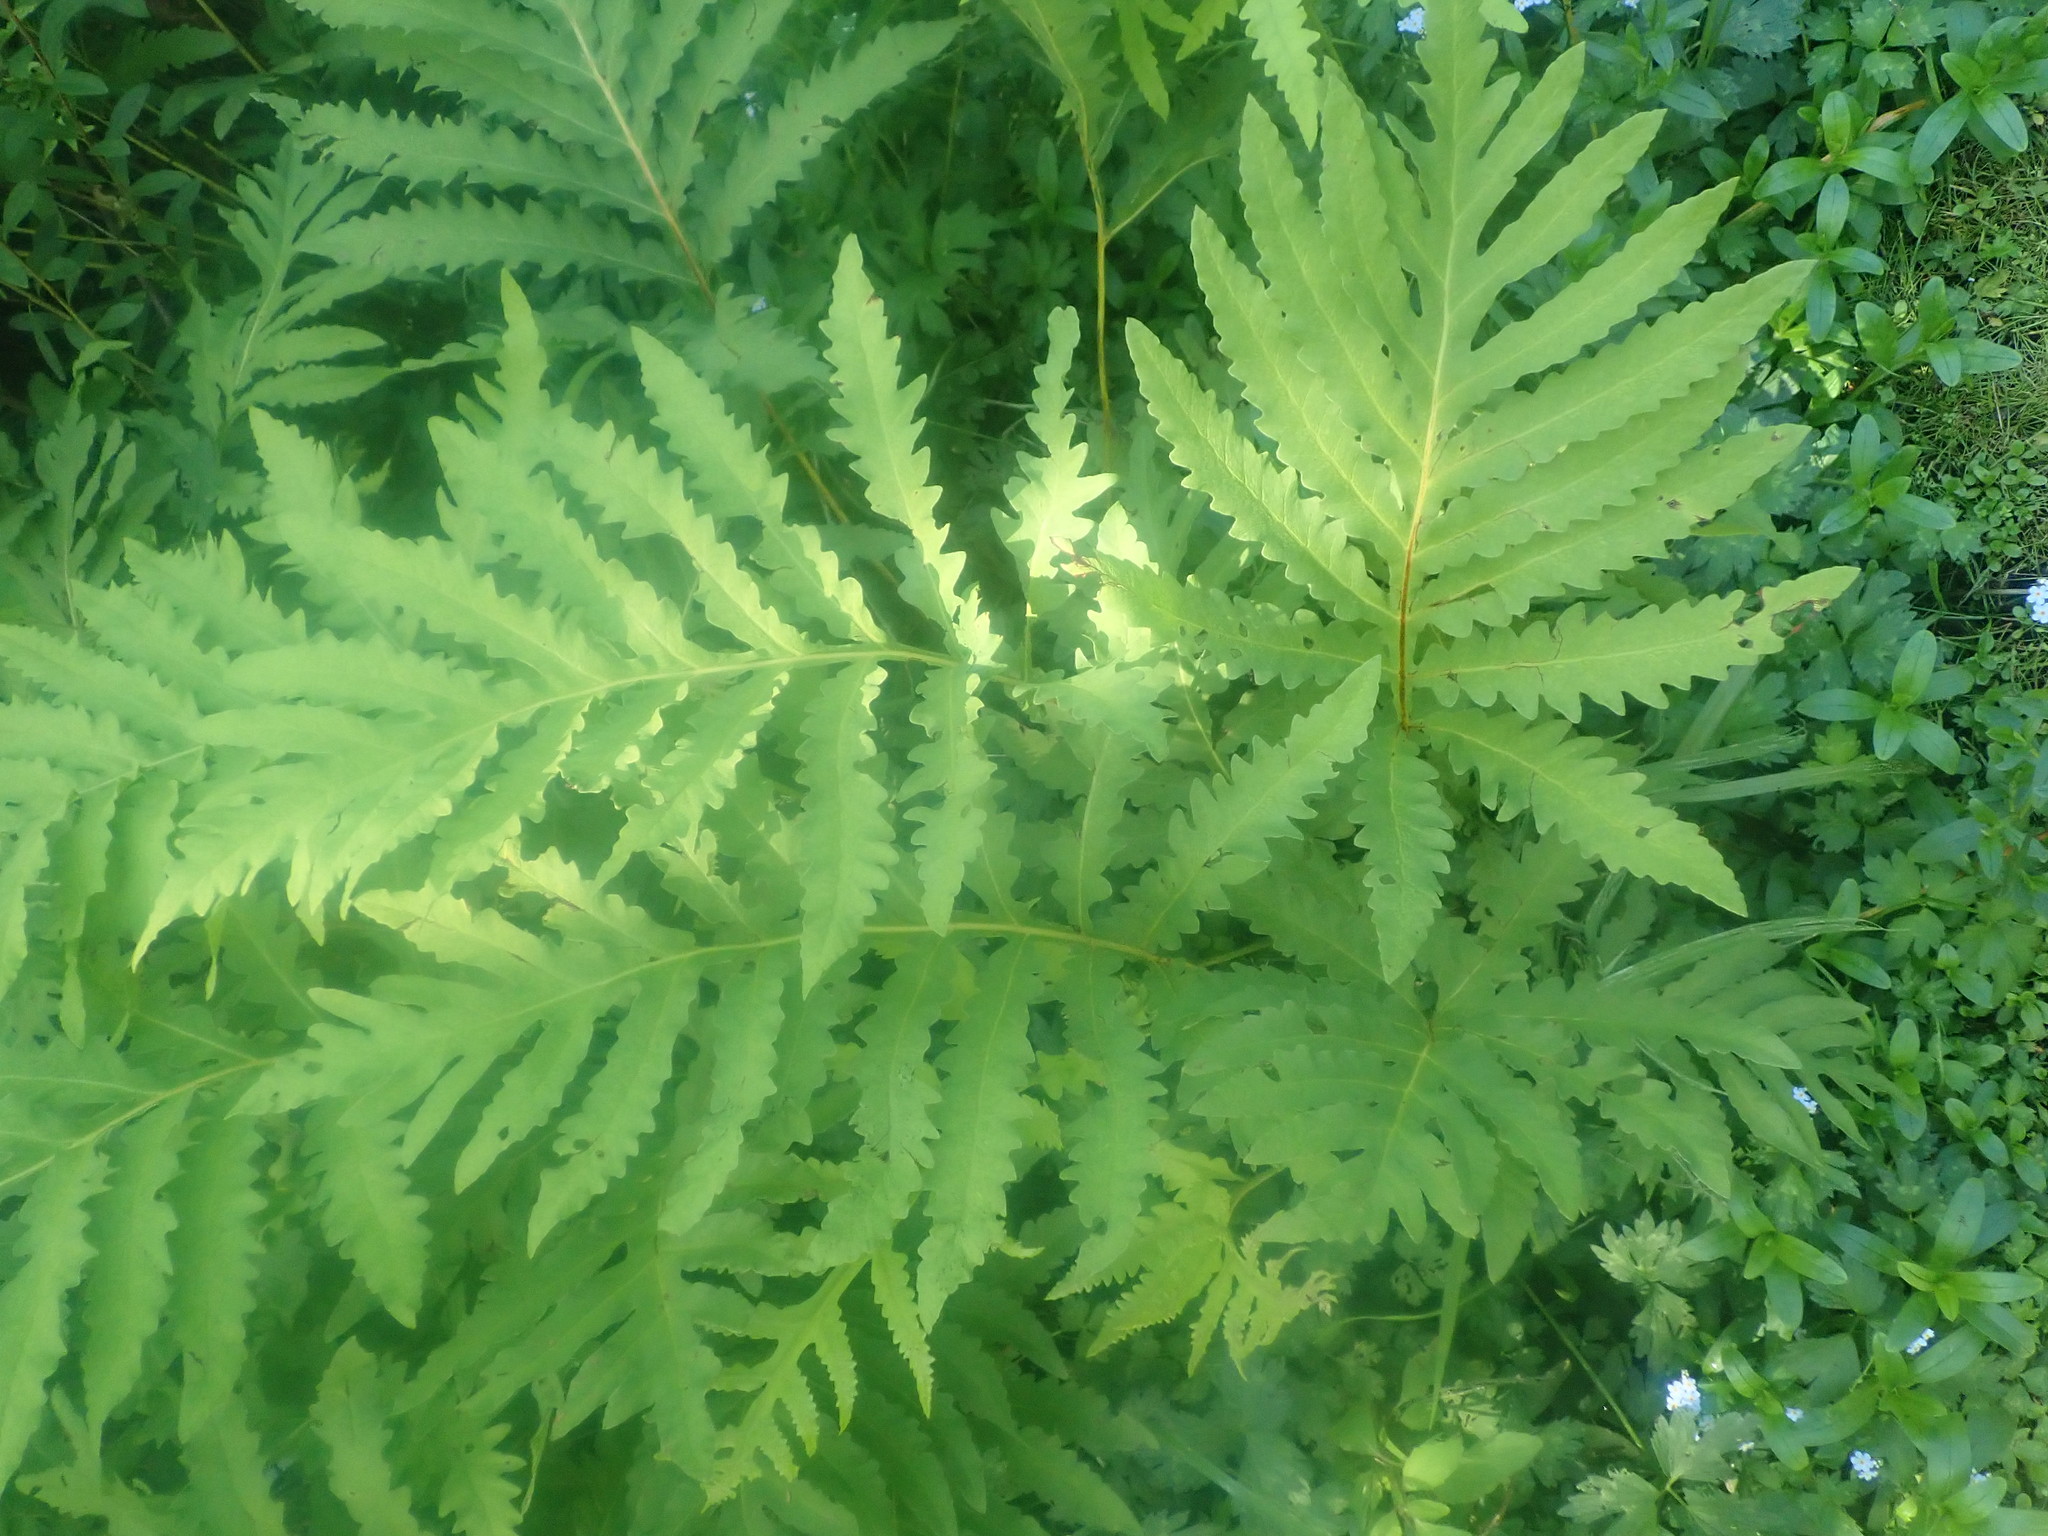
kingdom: Plantae
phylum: Tracheophyta
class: Polypodiopsida
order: Polypodiales
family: Onocleaceae
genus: Onoclea
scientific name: Onoclea sensibilis
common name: Sensitive fern
